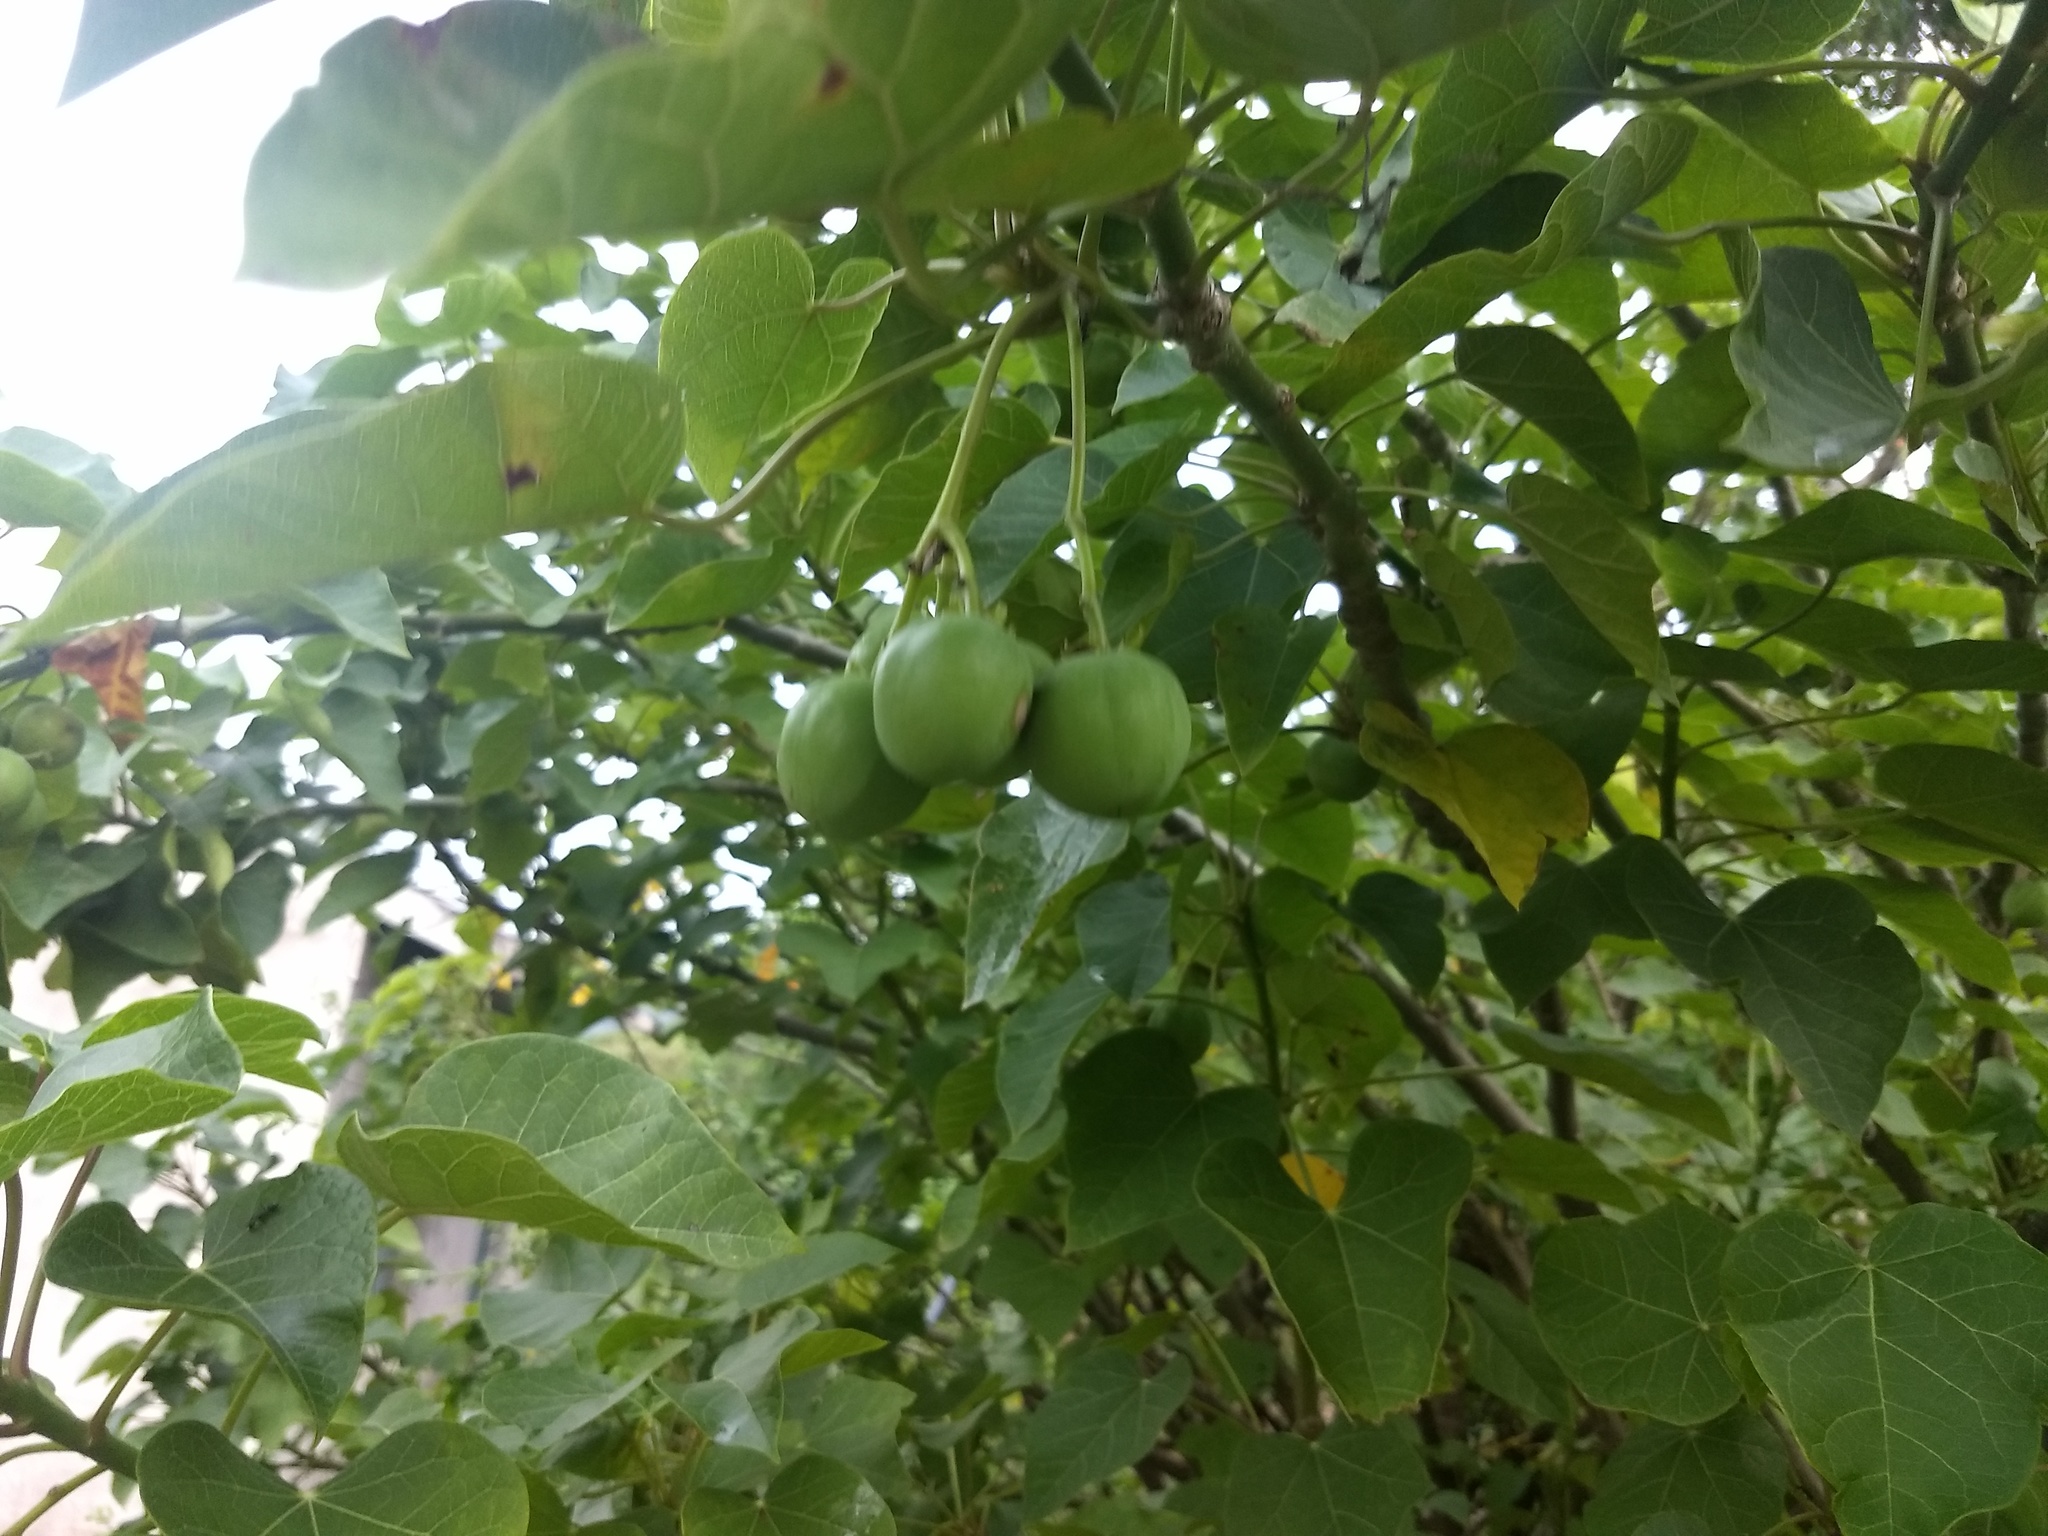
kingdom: Plantae
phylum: Tracheophyta
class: Magnoliopsida
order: Malpighiales
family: Euphorbiaceae
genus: Jatropha
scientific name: Jatropha curcas
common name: Barbados nut
